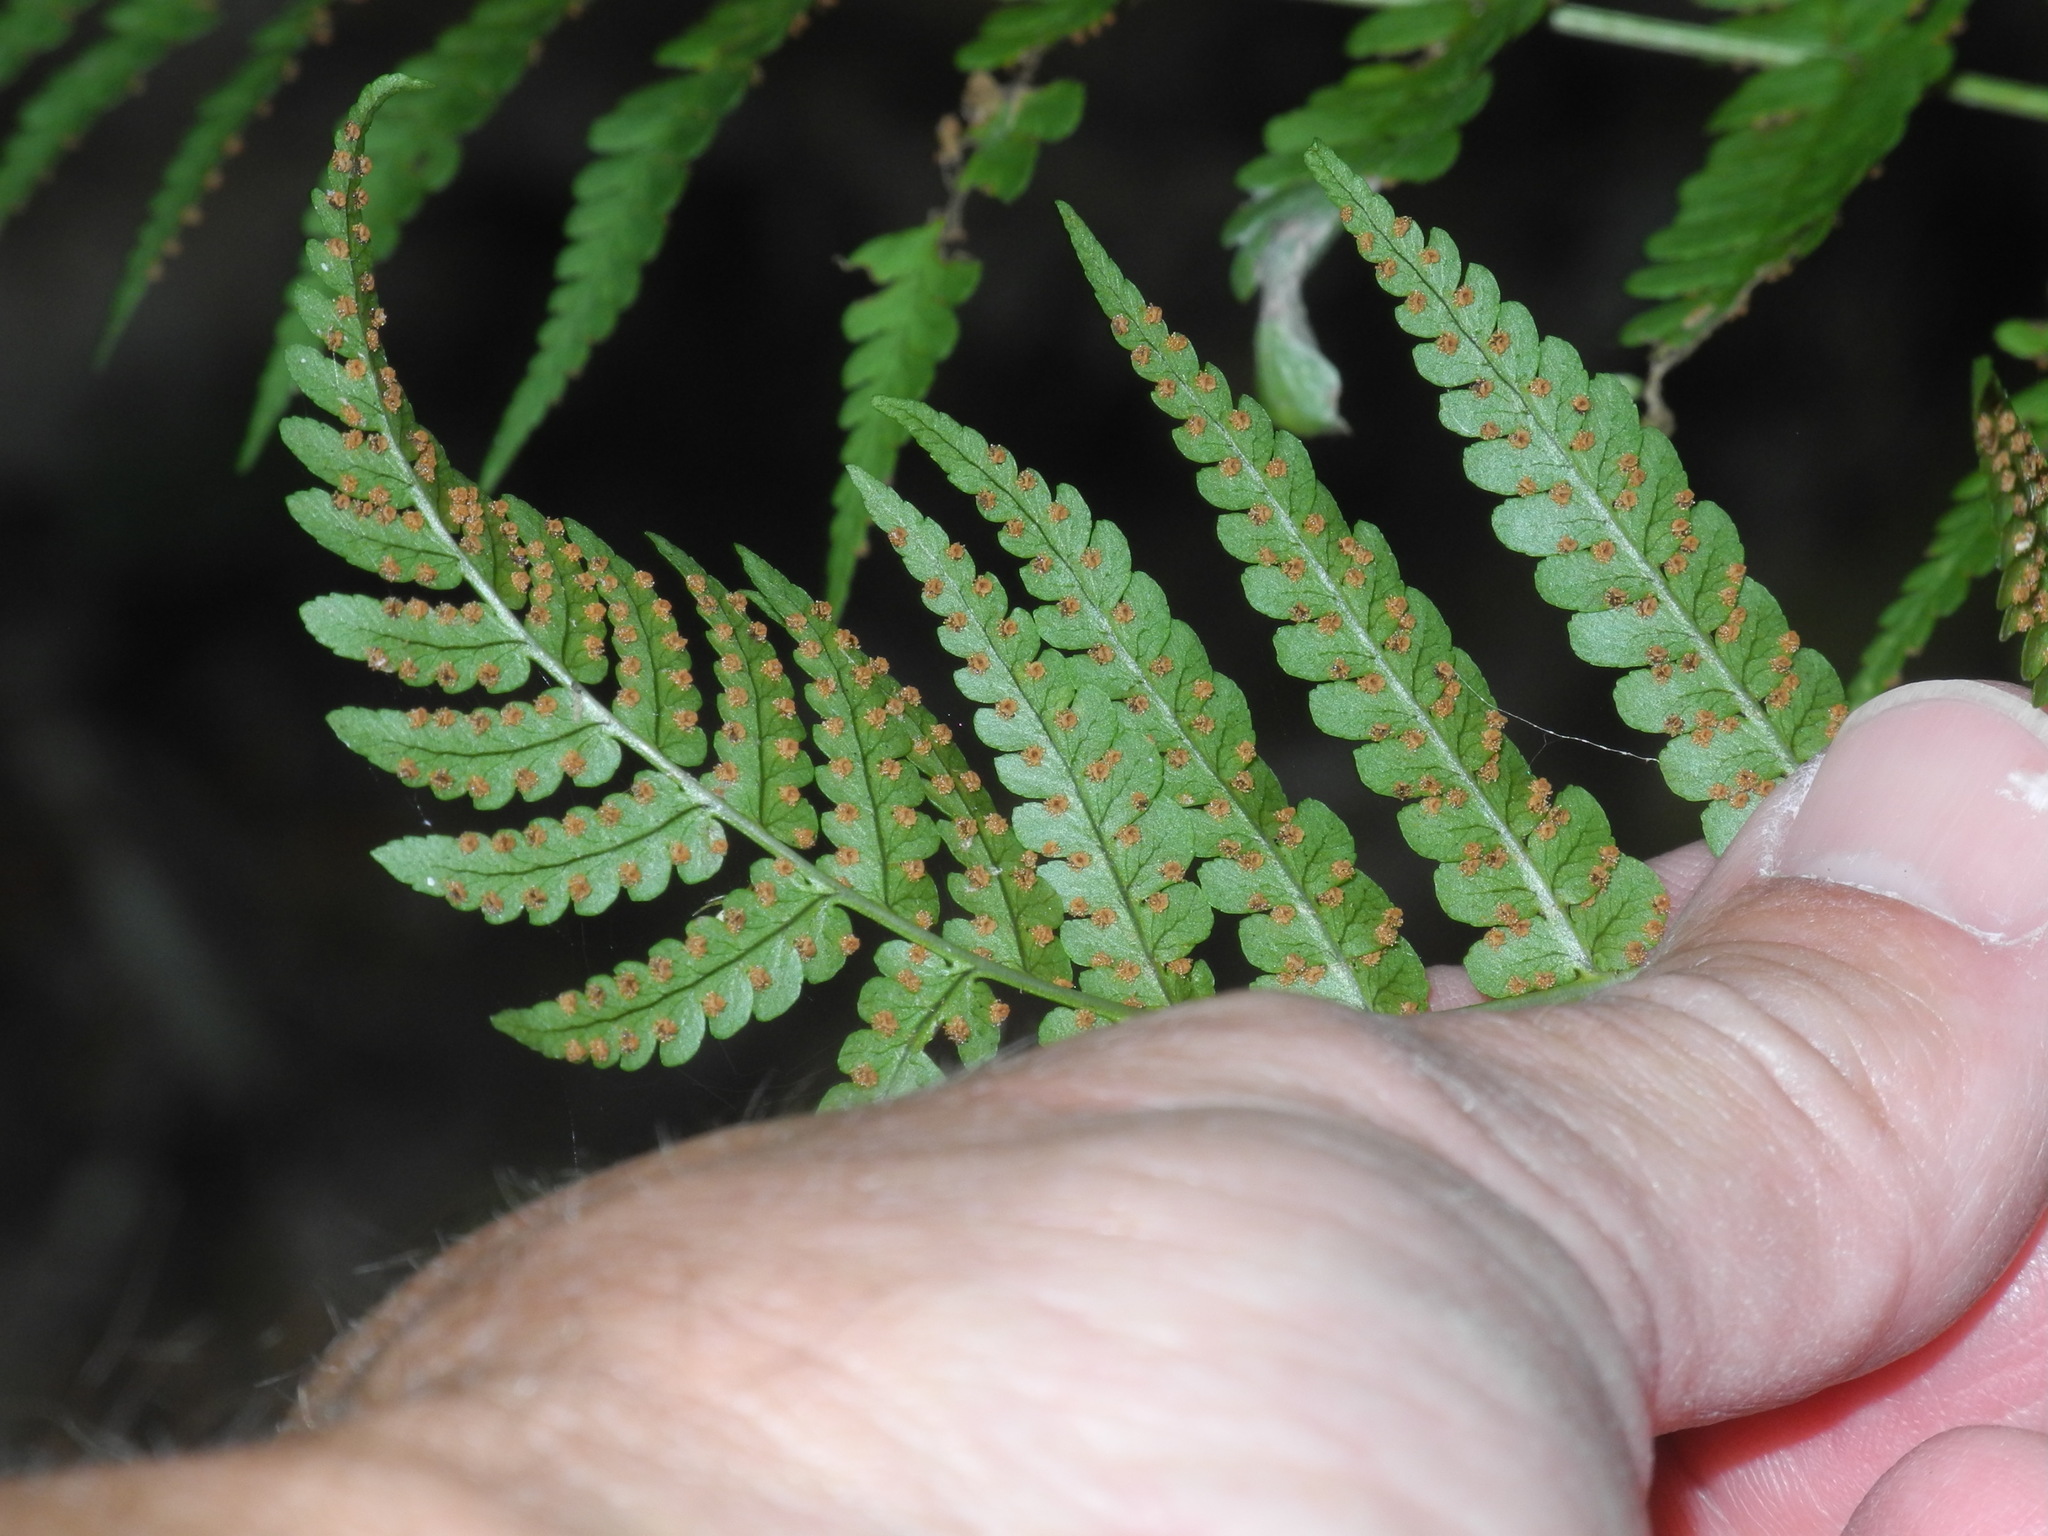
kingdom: Plantae
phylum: Tracheophyta
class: Polypodiopsida
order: Polypodiales
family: Dryopteridaceae
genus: Dryopteris
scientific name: Dryopteris marginalis
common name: Marginal wood fern
